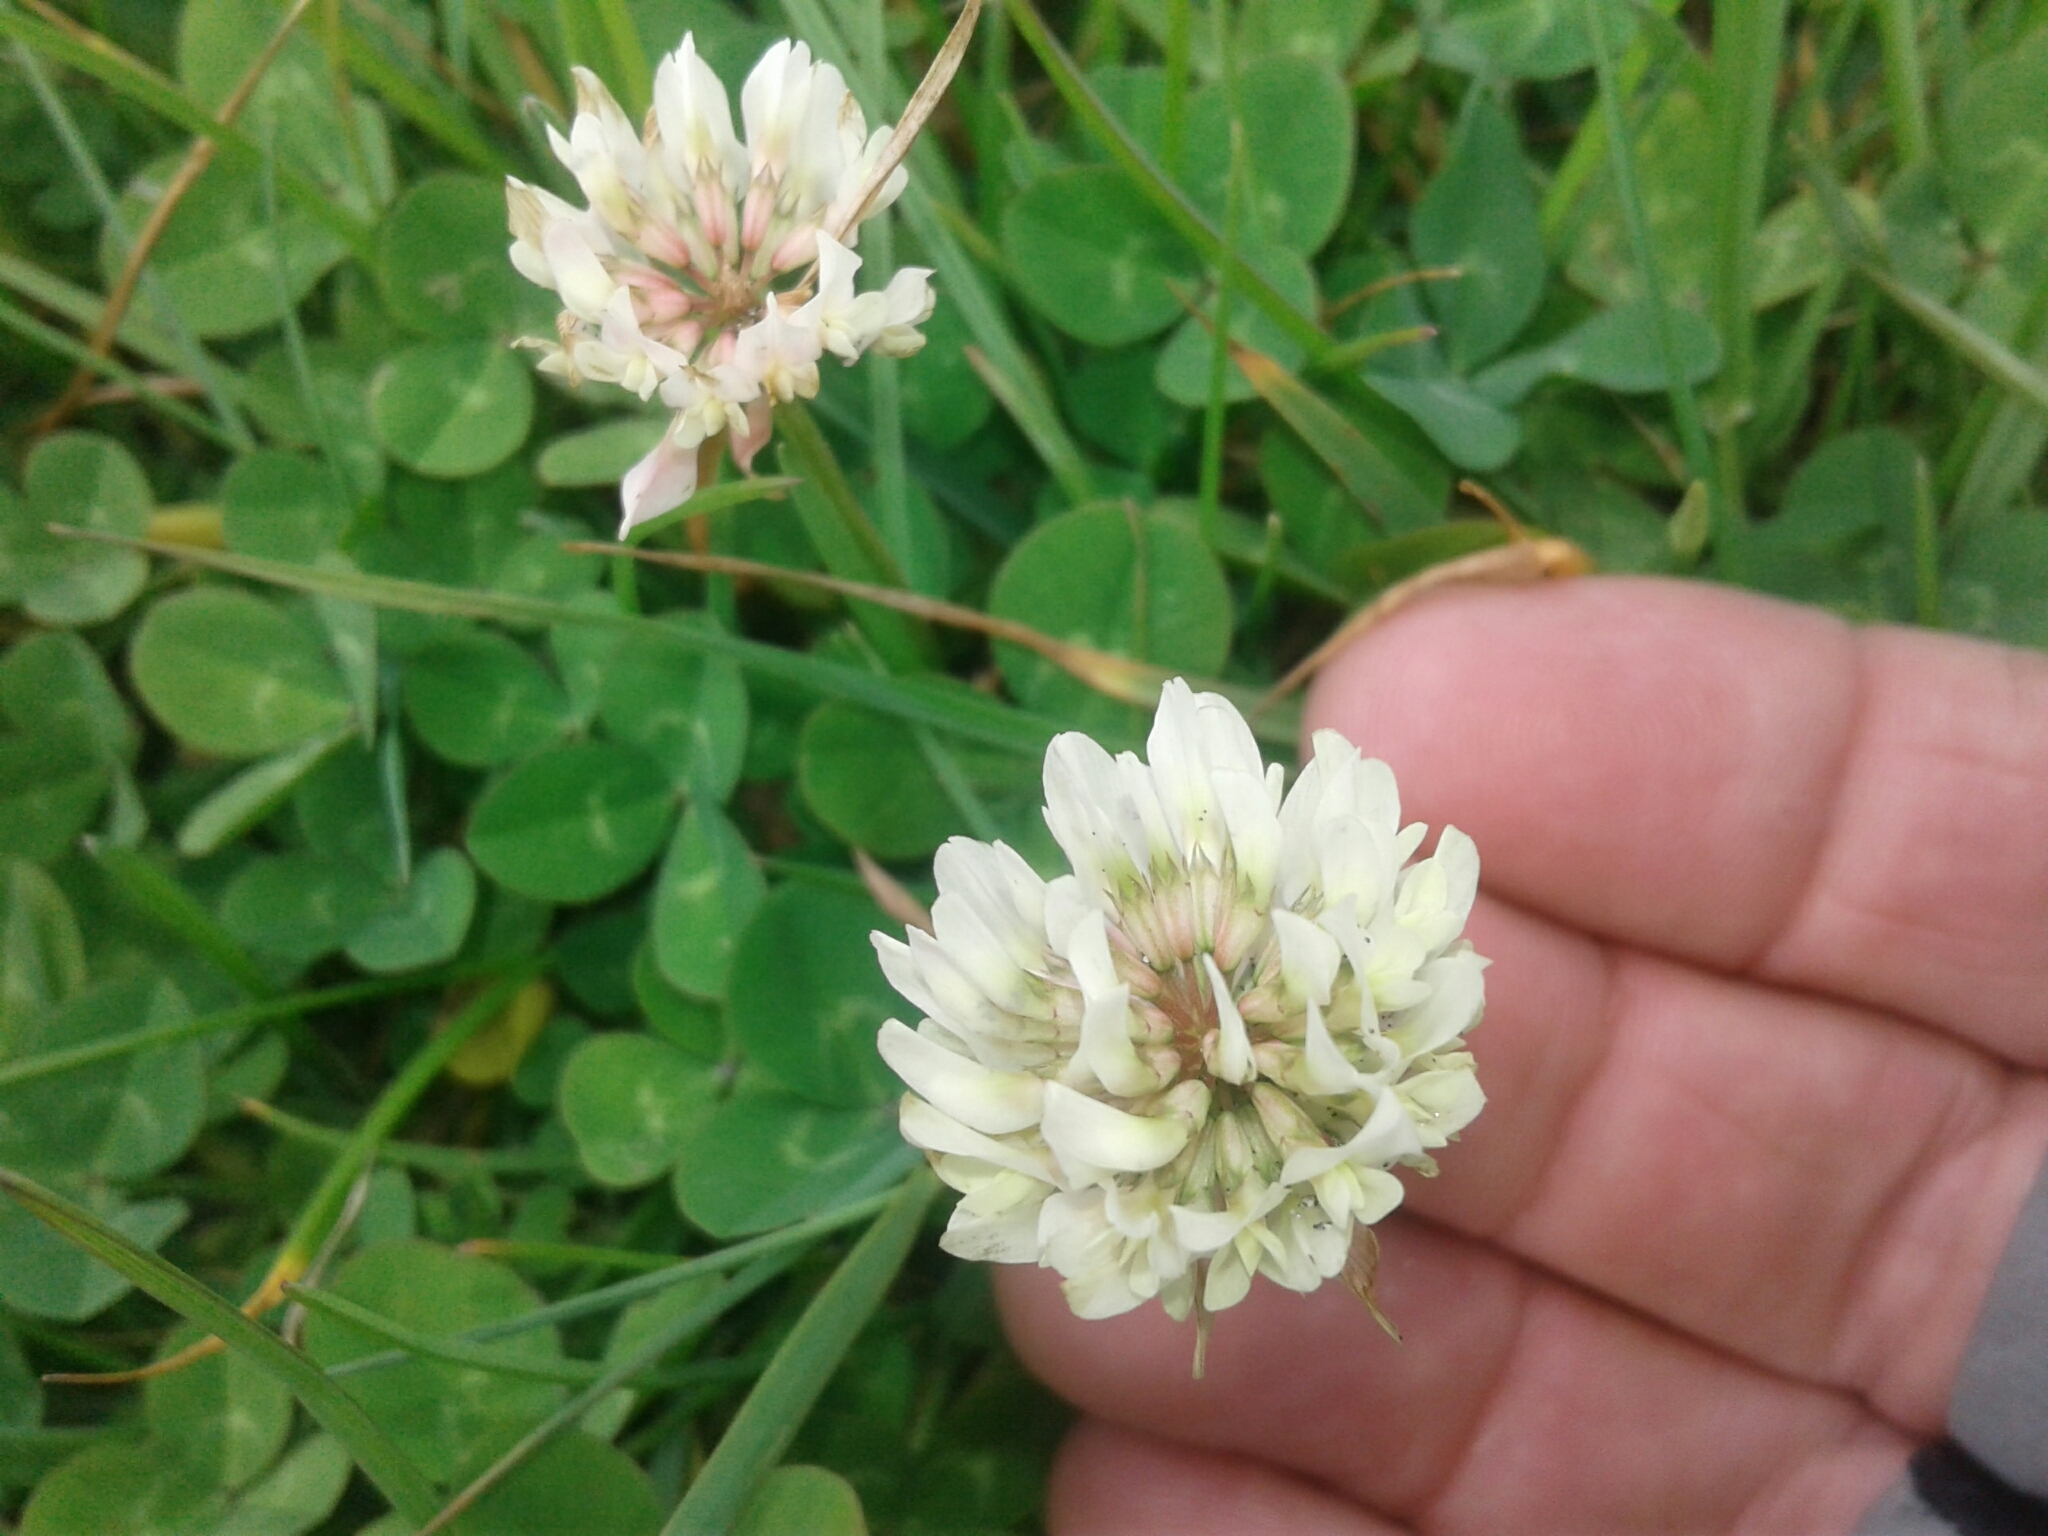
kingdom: Plantae
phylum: Tracheophyta
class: Magnoliopsida
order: Fabales
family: Fabaceae
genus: Trifolium
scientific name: Trifolium repens
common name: White clover
